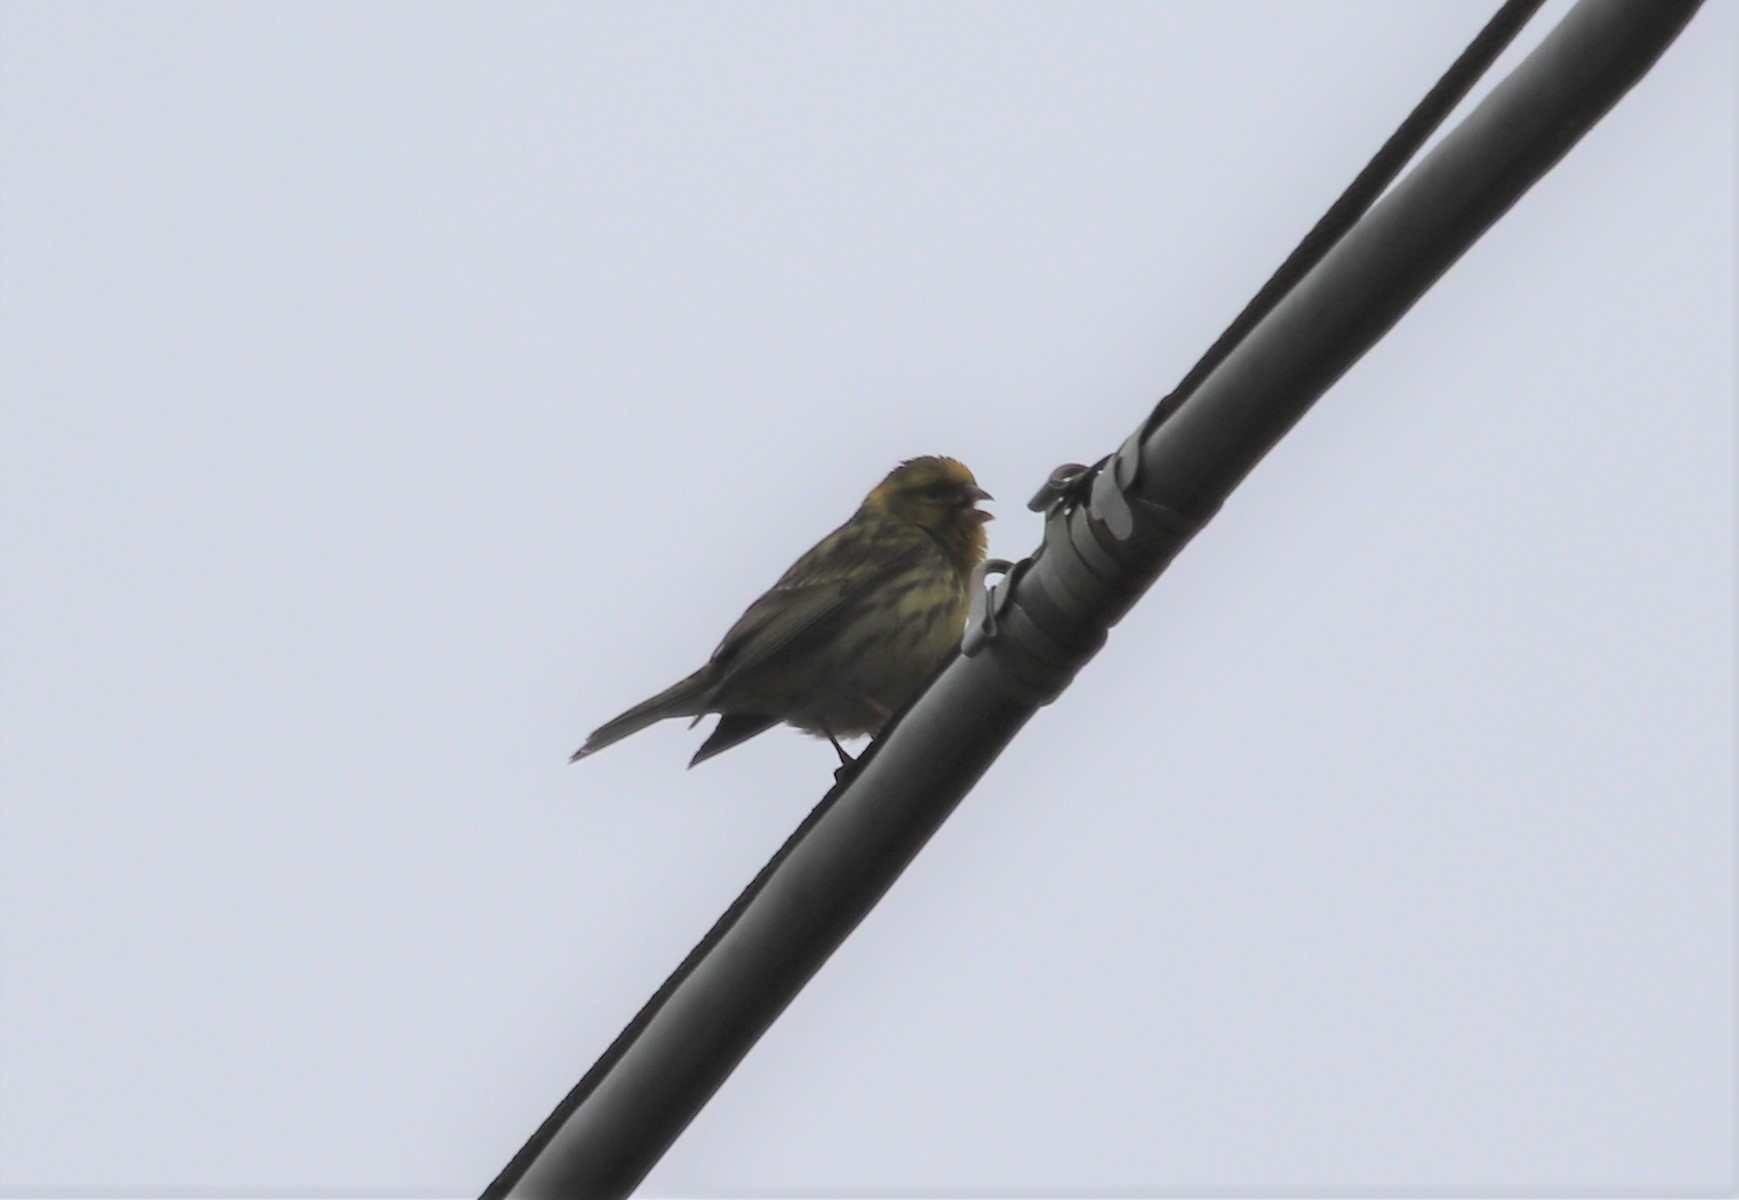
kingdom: Animalia
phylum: Chordata
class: Aves
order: Passeriformes
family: Fringillidae
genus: Serinus
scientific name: Serinus serinus
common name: European serin
